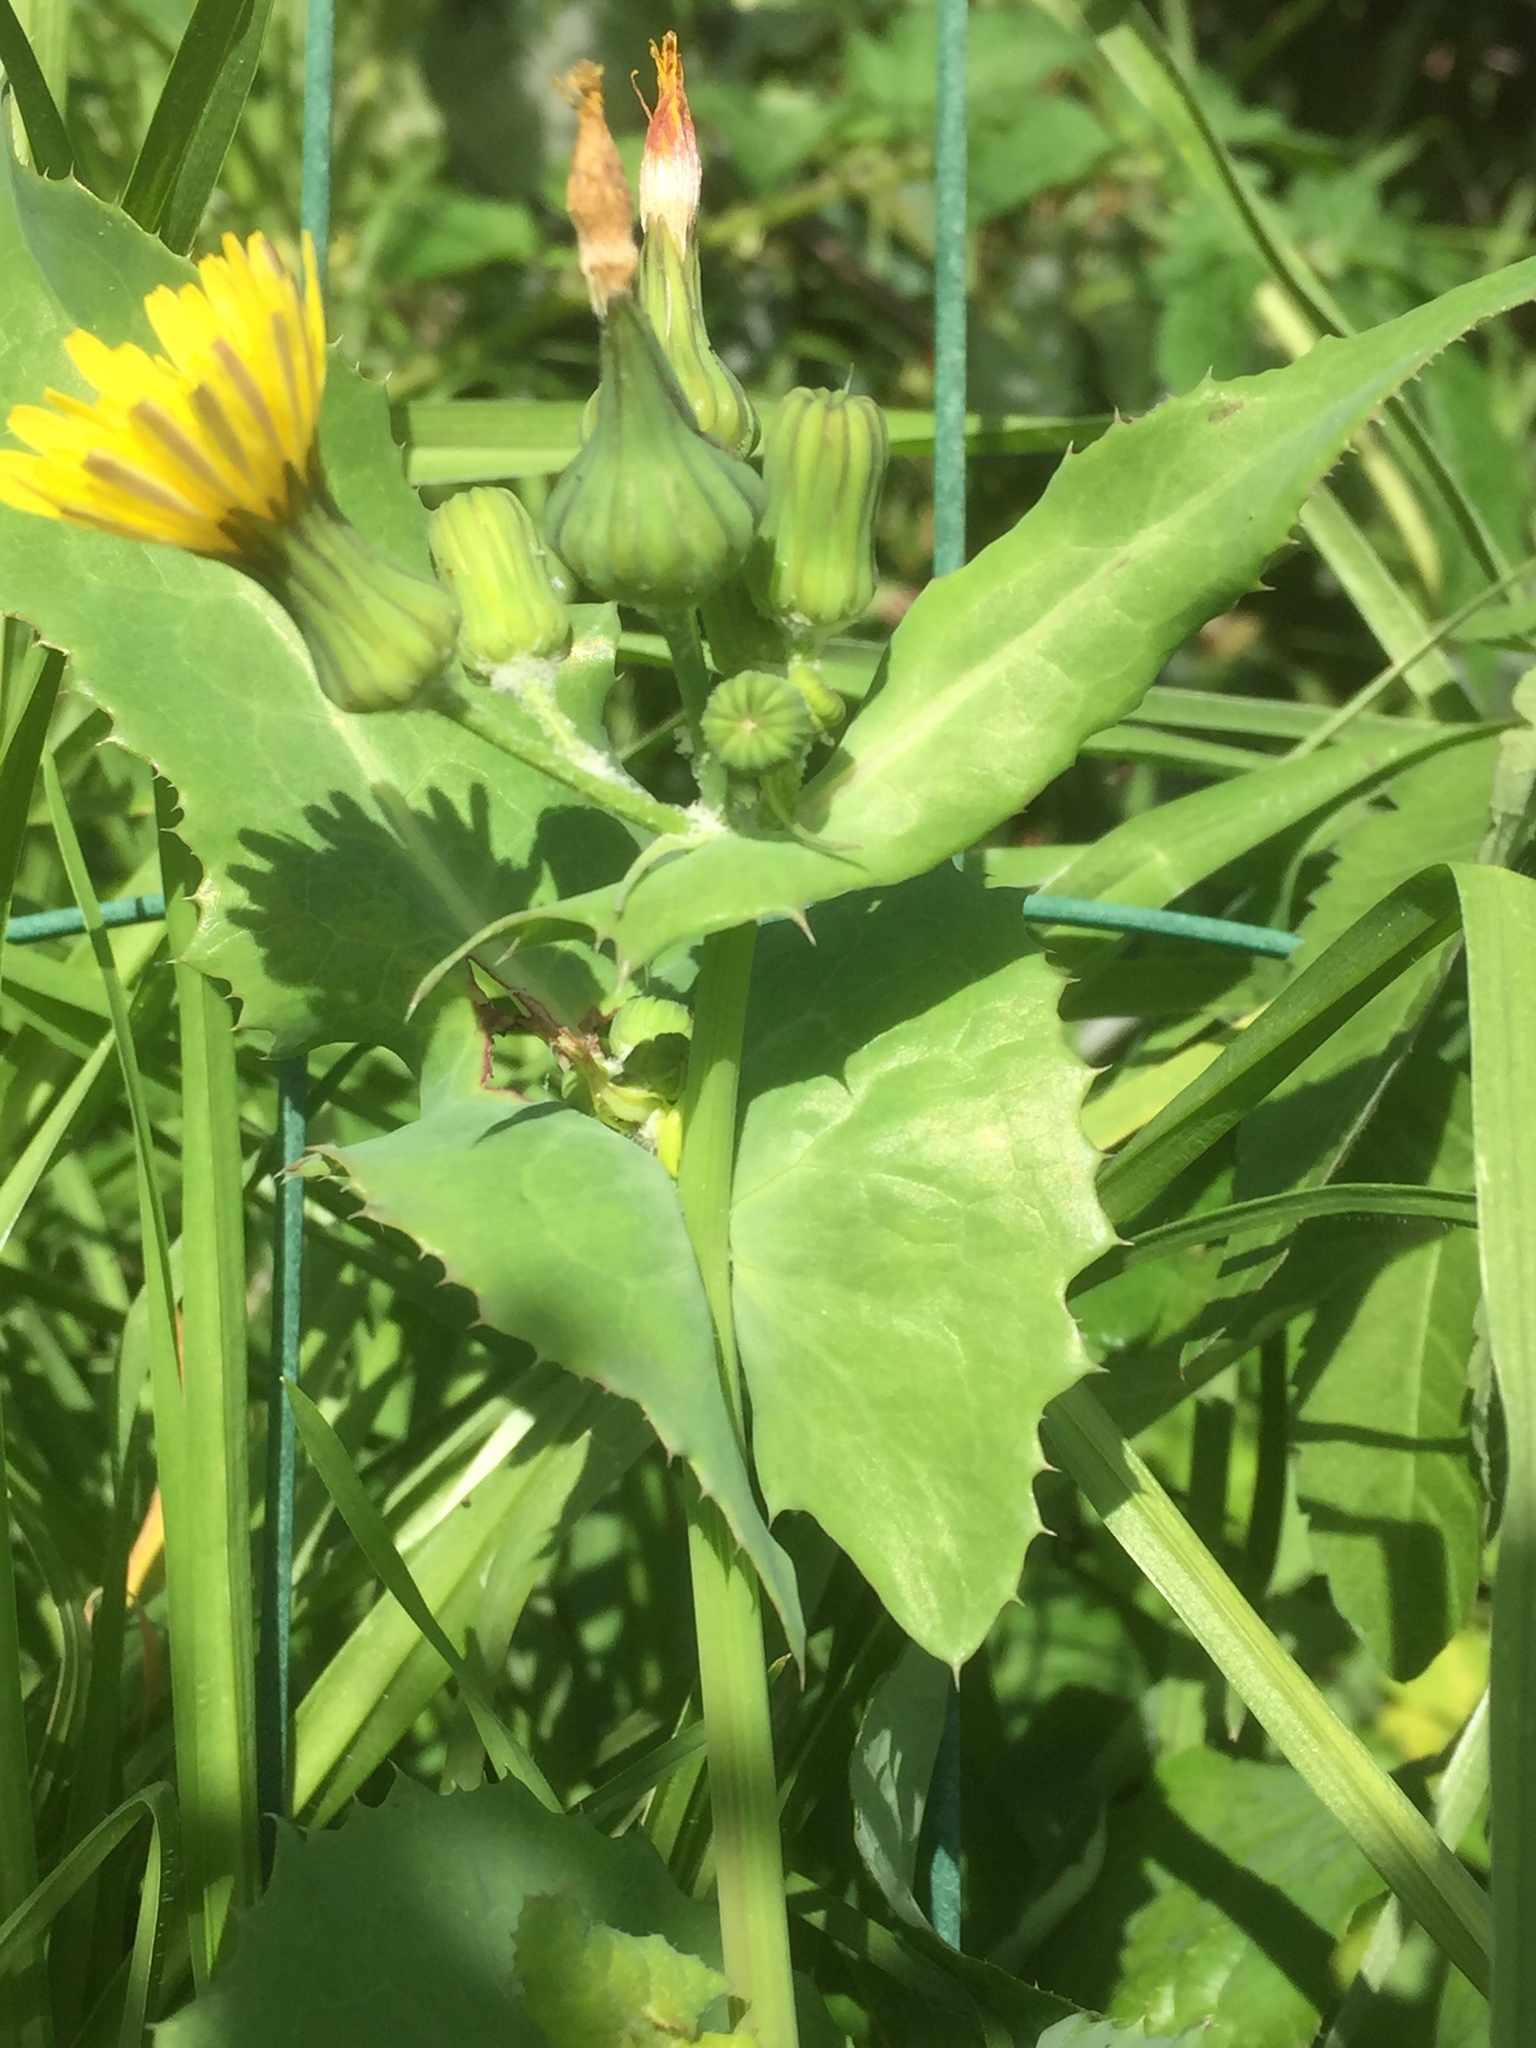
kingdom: Plantae
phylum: Tracheophyta
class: Magnoliopsida
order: Asterales
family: Asteraceae
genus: Sonchus
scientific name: Sonchus oleraceus
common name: Common sowthistle
